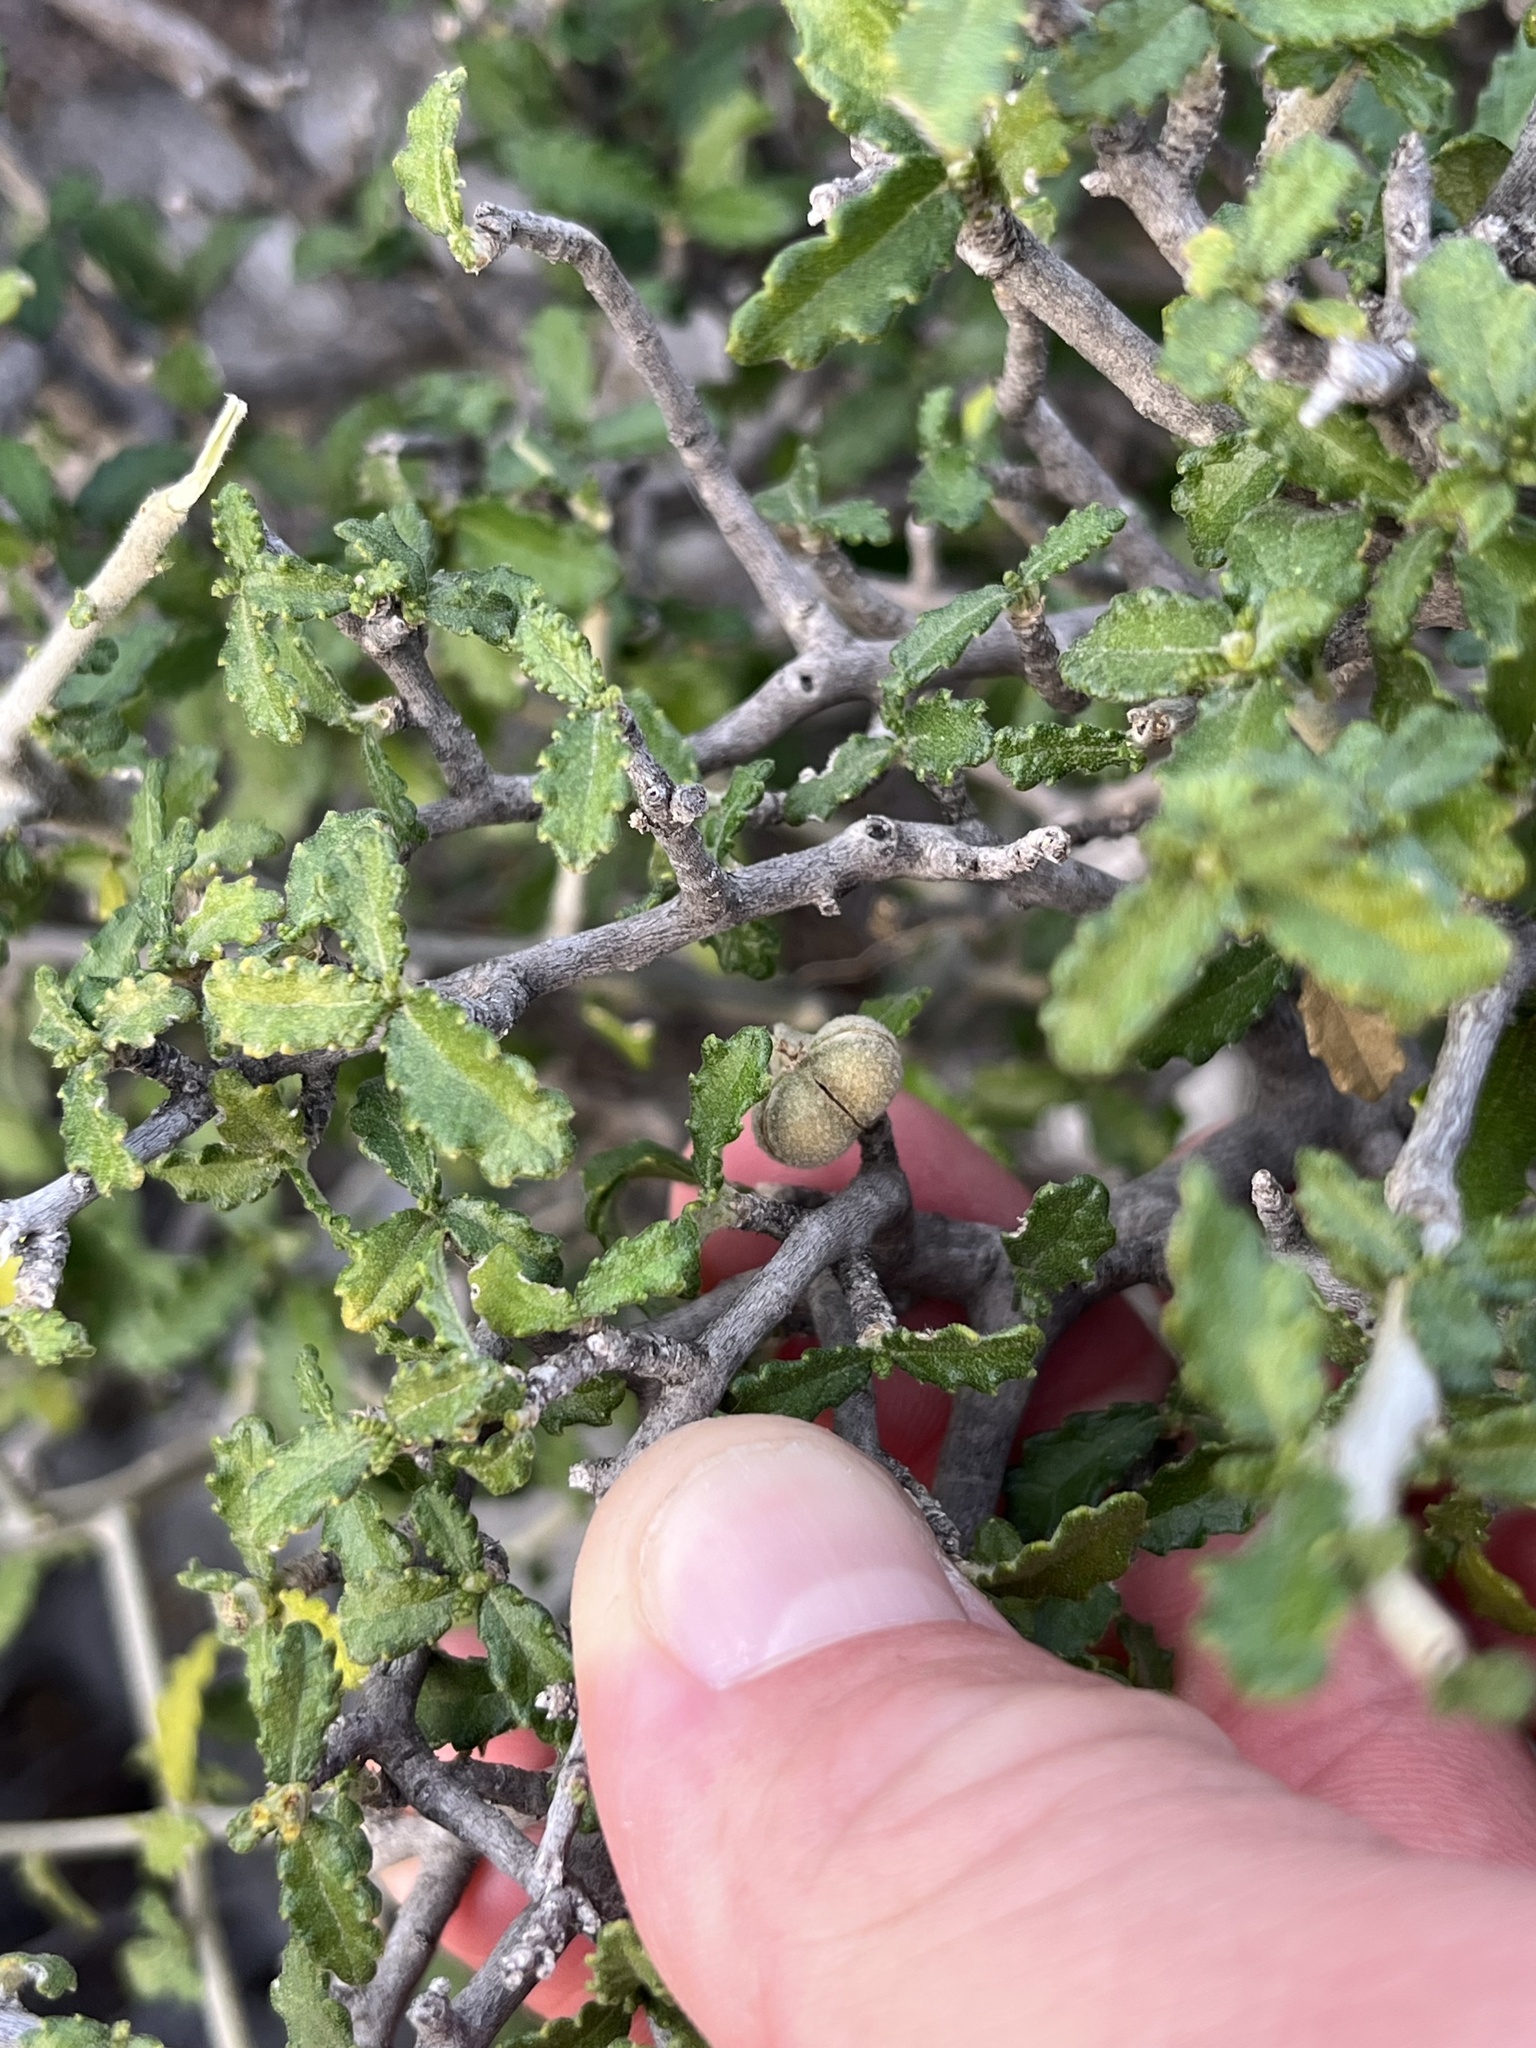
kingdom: Plantae
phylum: Tracheophyta
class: Magnoliopsida
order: Malpighiales
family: Euphorbiaceae
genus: Bernardia
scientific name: Bernardia myricifolia
